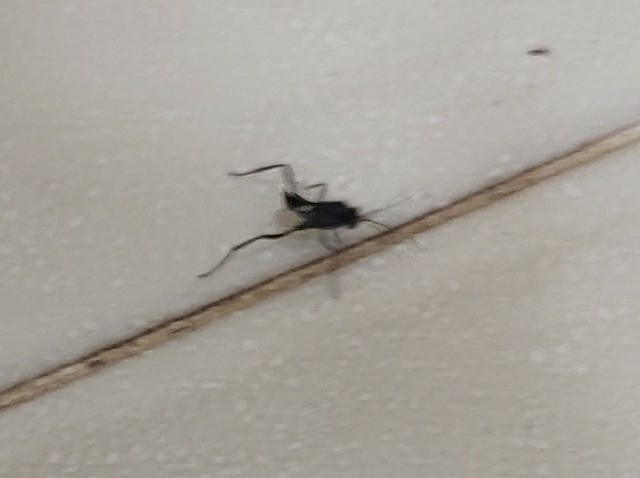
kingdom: Animalia
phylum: Arthropoda
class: Insecta
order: Hymenoptera
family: Evaniidae
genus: Evania
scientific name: Evania appendigaster
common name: Ensign wasp
